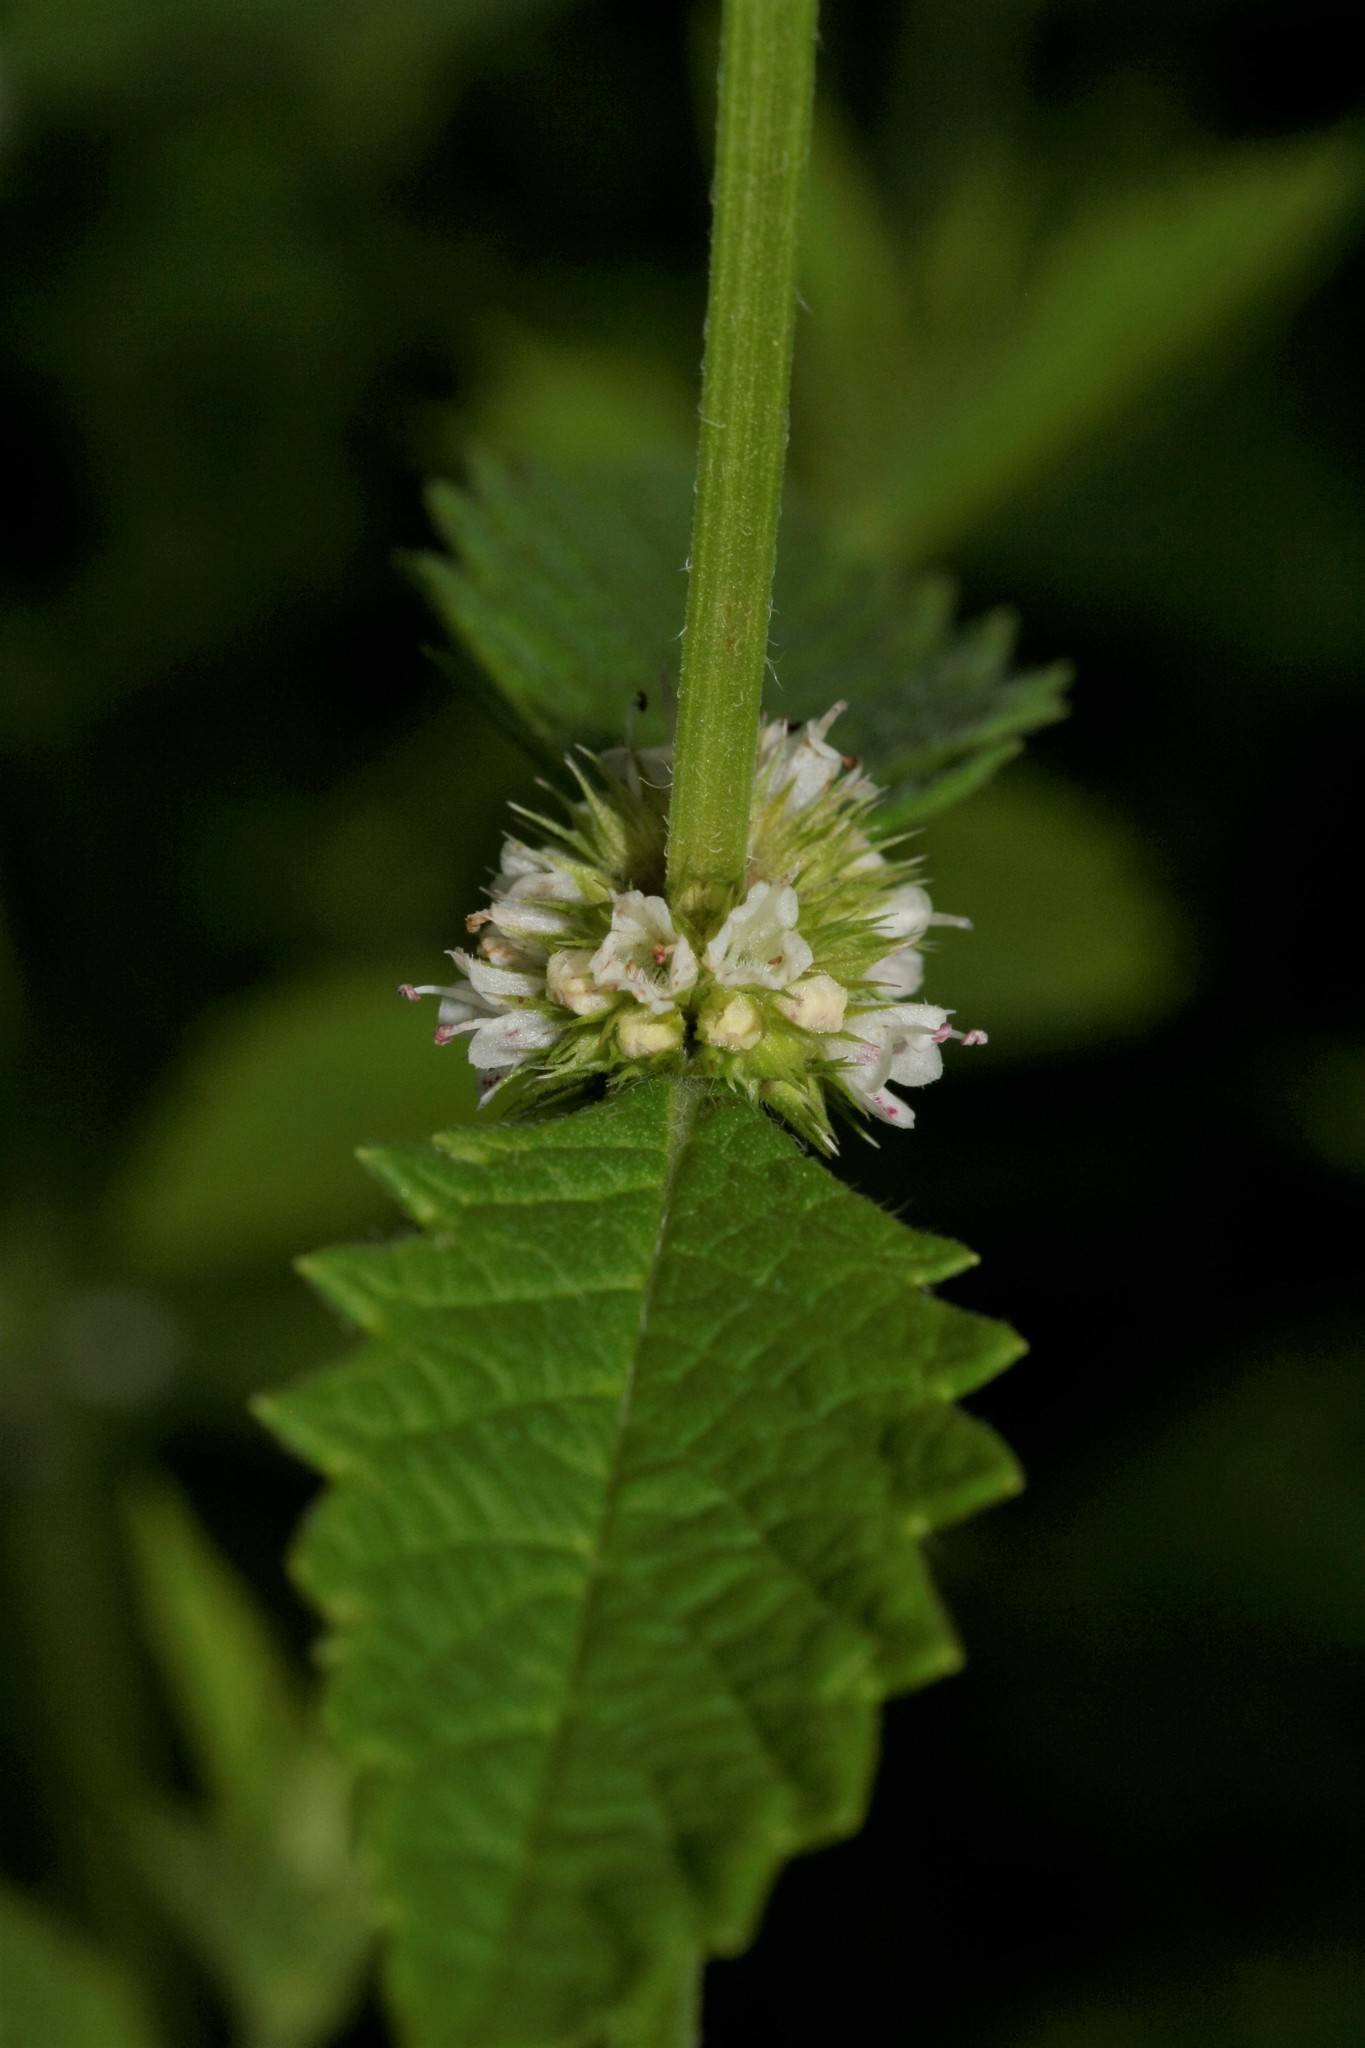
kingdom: Plantae
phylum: Tracheophyta
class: Magnoliopsida
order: Lamiales
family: Lamiaceae
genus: Lycopus
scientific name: Lycopus europaeus
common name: European bugleweed
